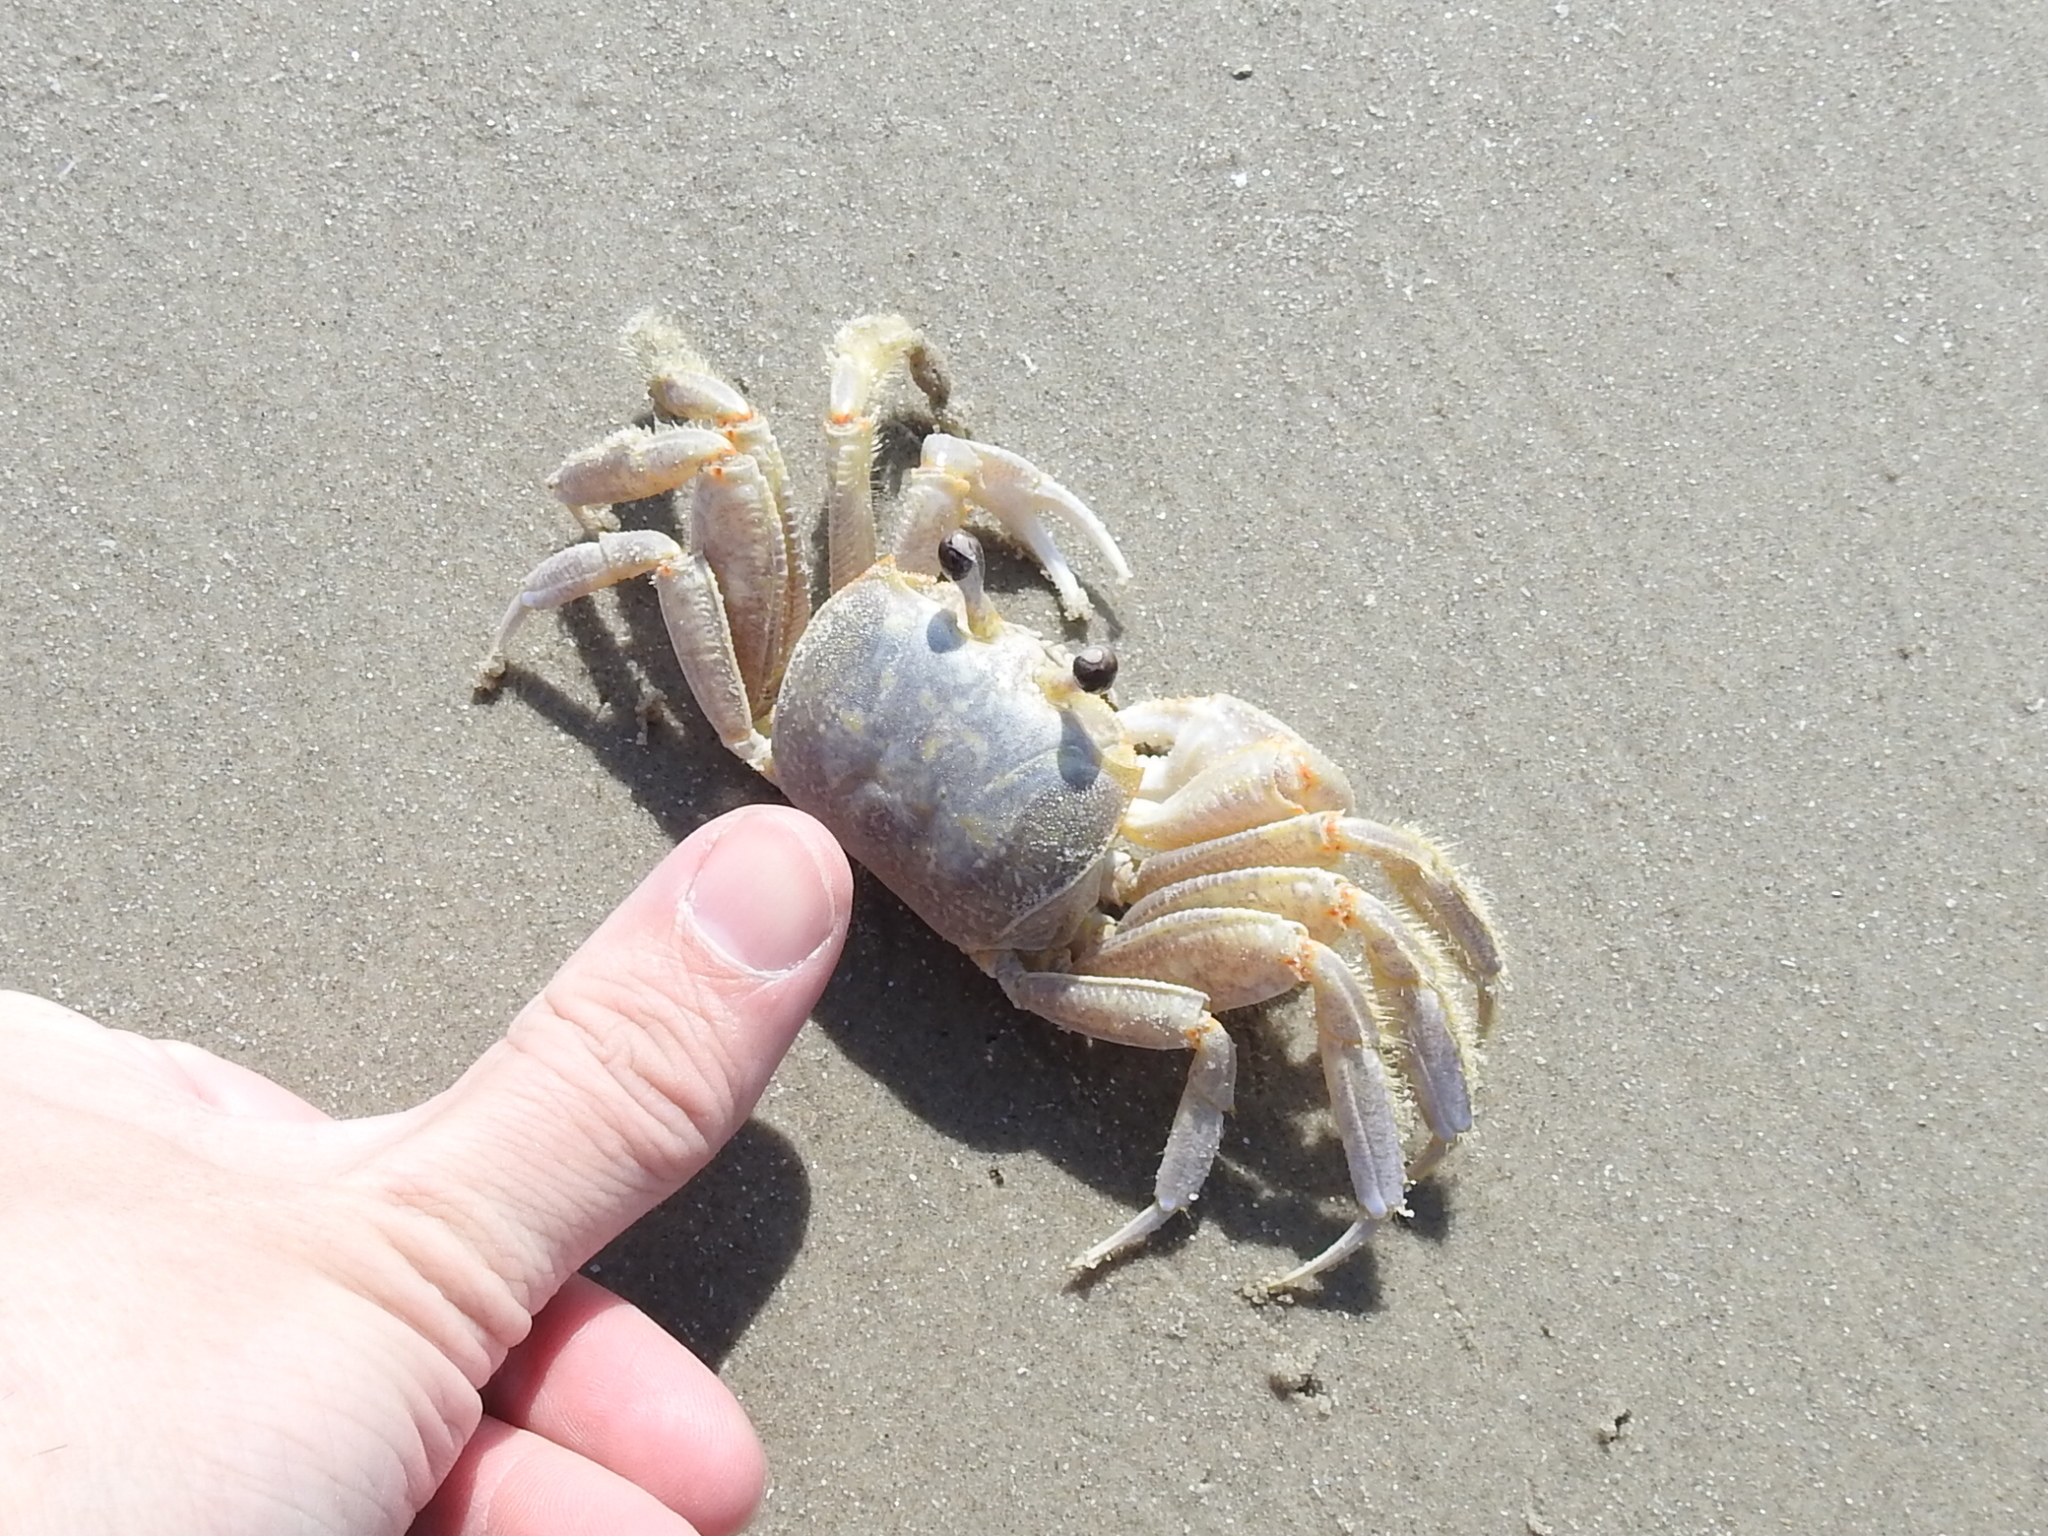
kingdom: Animalia
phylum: Arthropoda
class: Malacostraca
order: Decapoda
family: Ocypodidae
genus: Ocypode
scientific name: Ocypode quadrata
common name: Ghost crab
